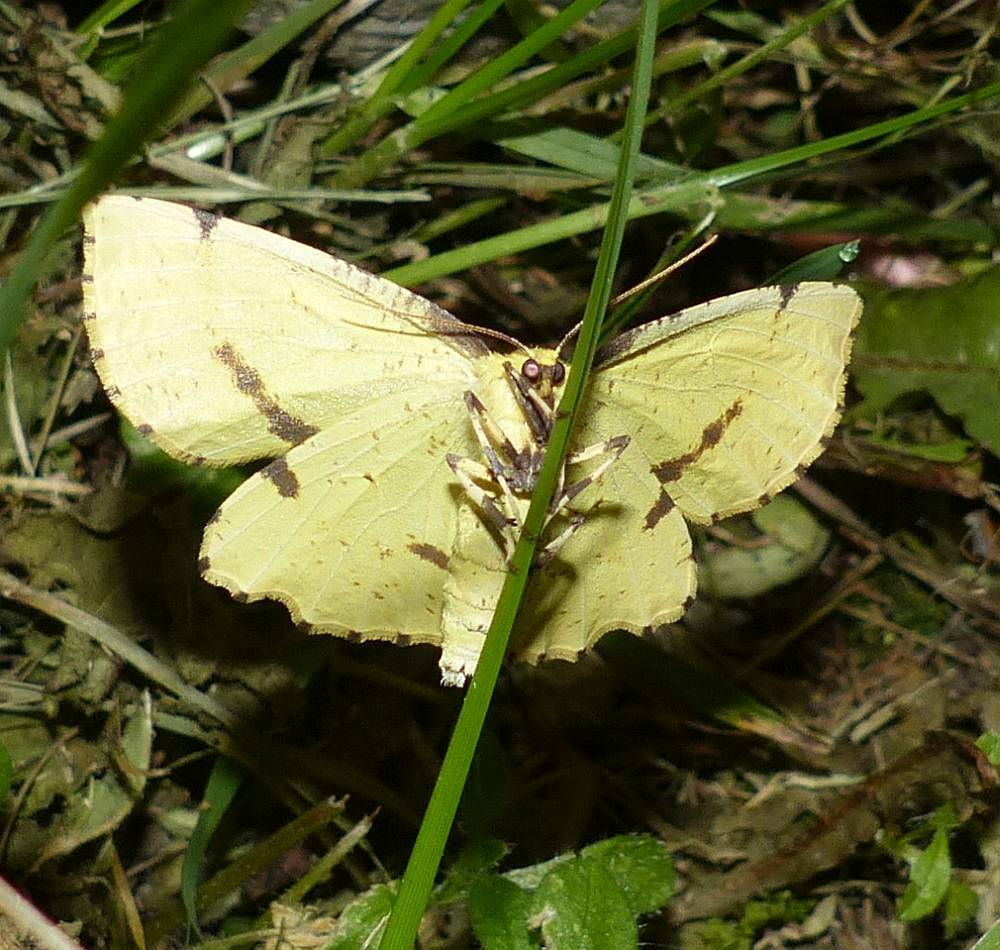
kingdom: Animalia
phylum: Arthropoda
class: Insecta
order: Lepidoptera
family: Geometridae
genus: Xanthotype
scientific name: Xanthotype
